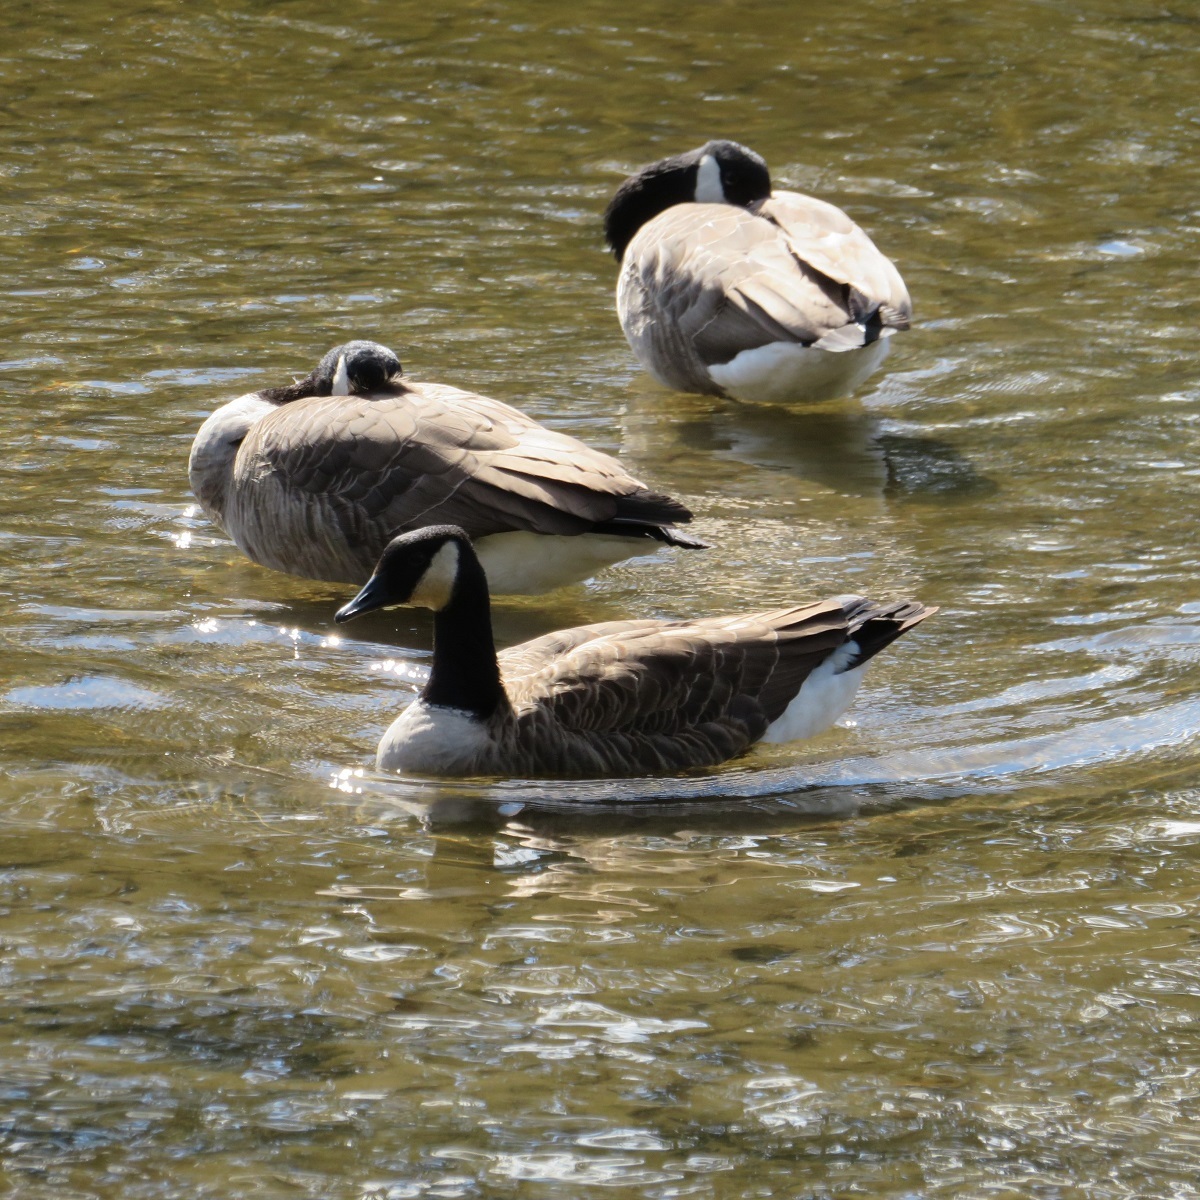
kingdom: Animalia
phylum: Chordata
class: Aves
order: Anseriformes
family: Anatidae
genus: Branta
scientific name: Branta canadensis
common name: Canada goose
